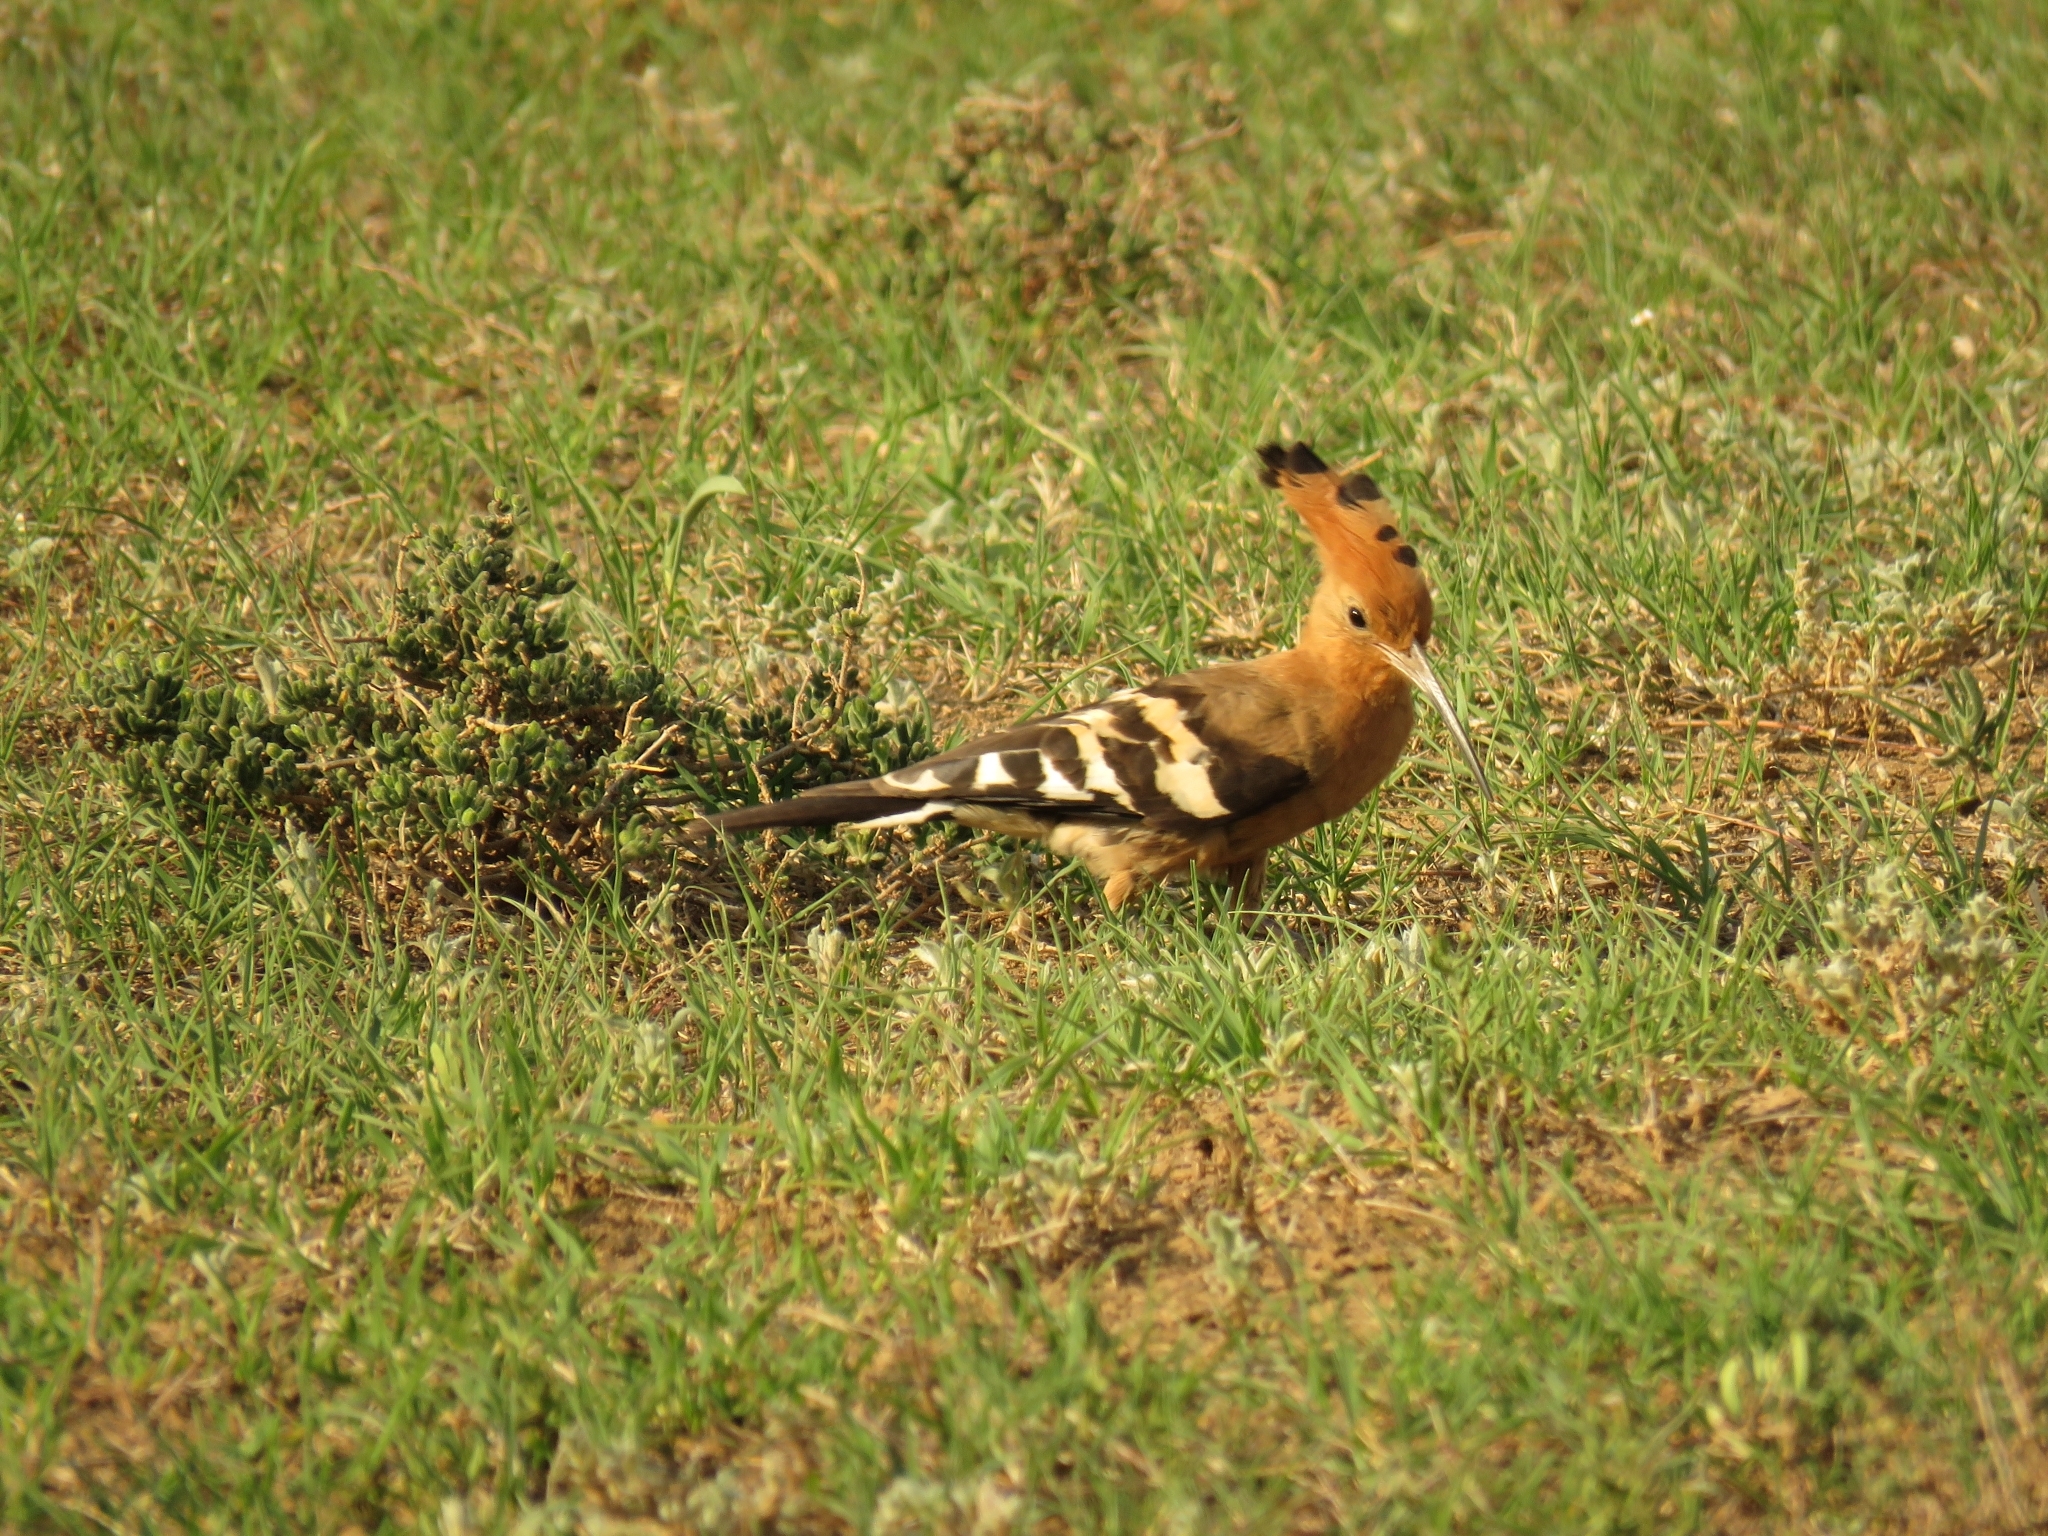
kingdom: Animalia
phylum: Chordata
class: Aves
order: Bucerotiformes
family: Upupidae
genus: Upupa
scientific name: Upupa africana
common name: African hoopoe
